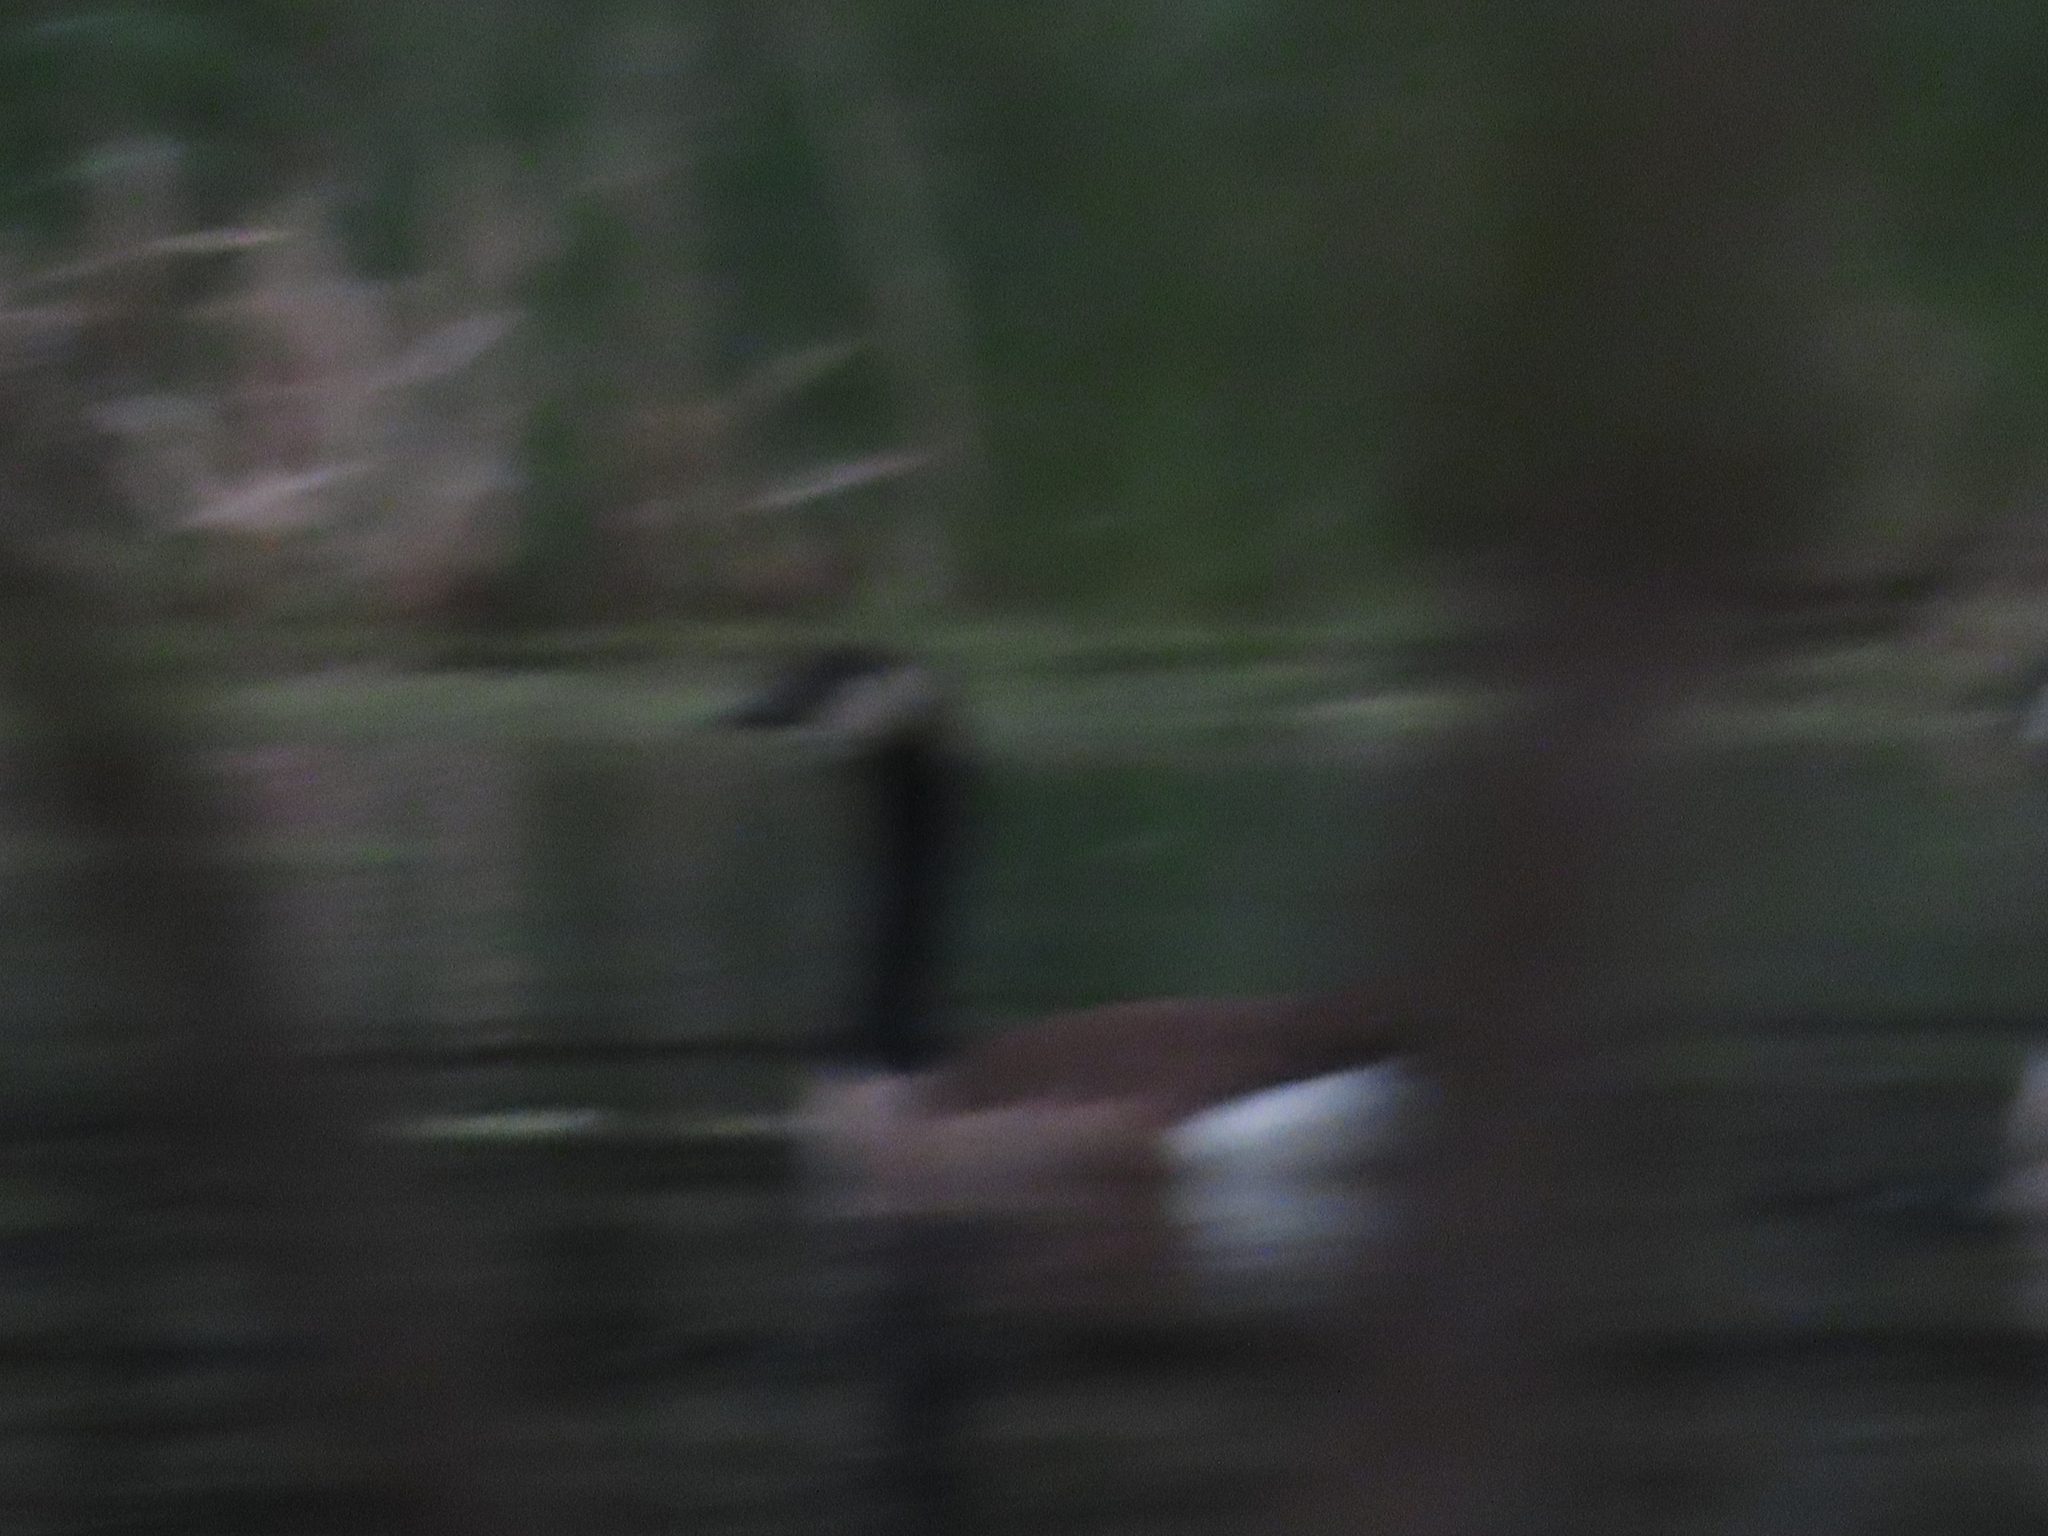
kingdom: Animalia
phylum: Chordata
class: Aves
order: Anseriformes
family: Anatidae
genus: Branta
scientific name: Branta canadensis
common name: Canada goose
